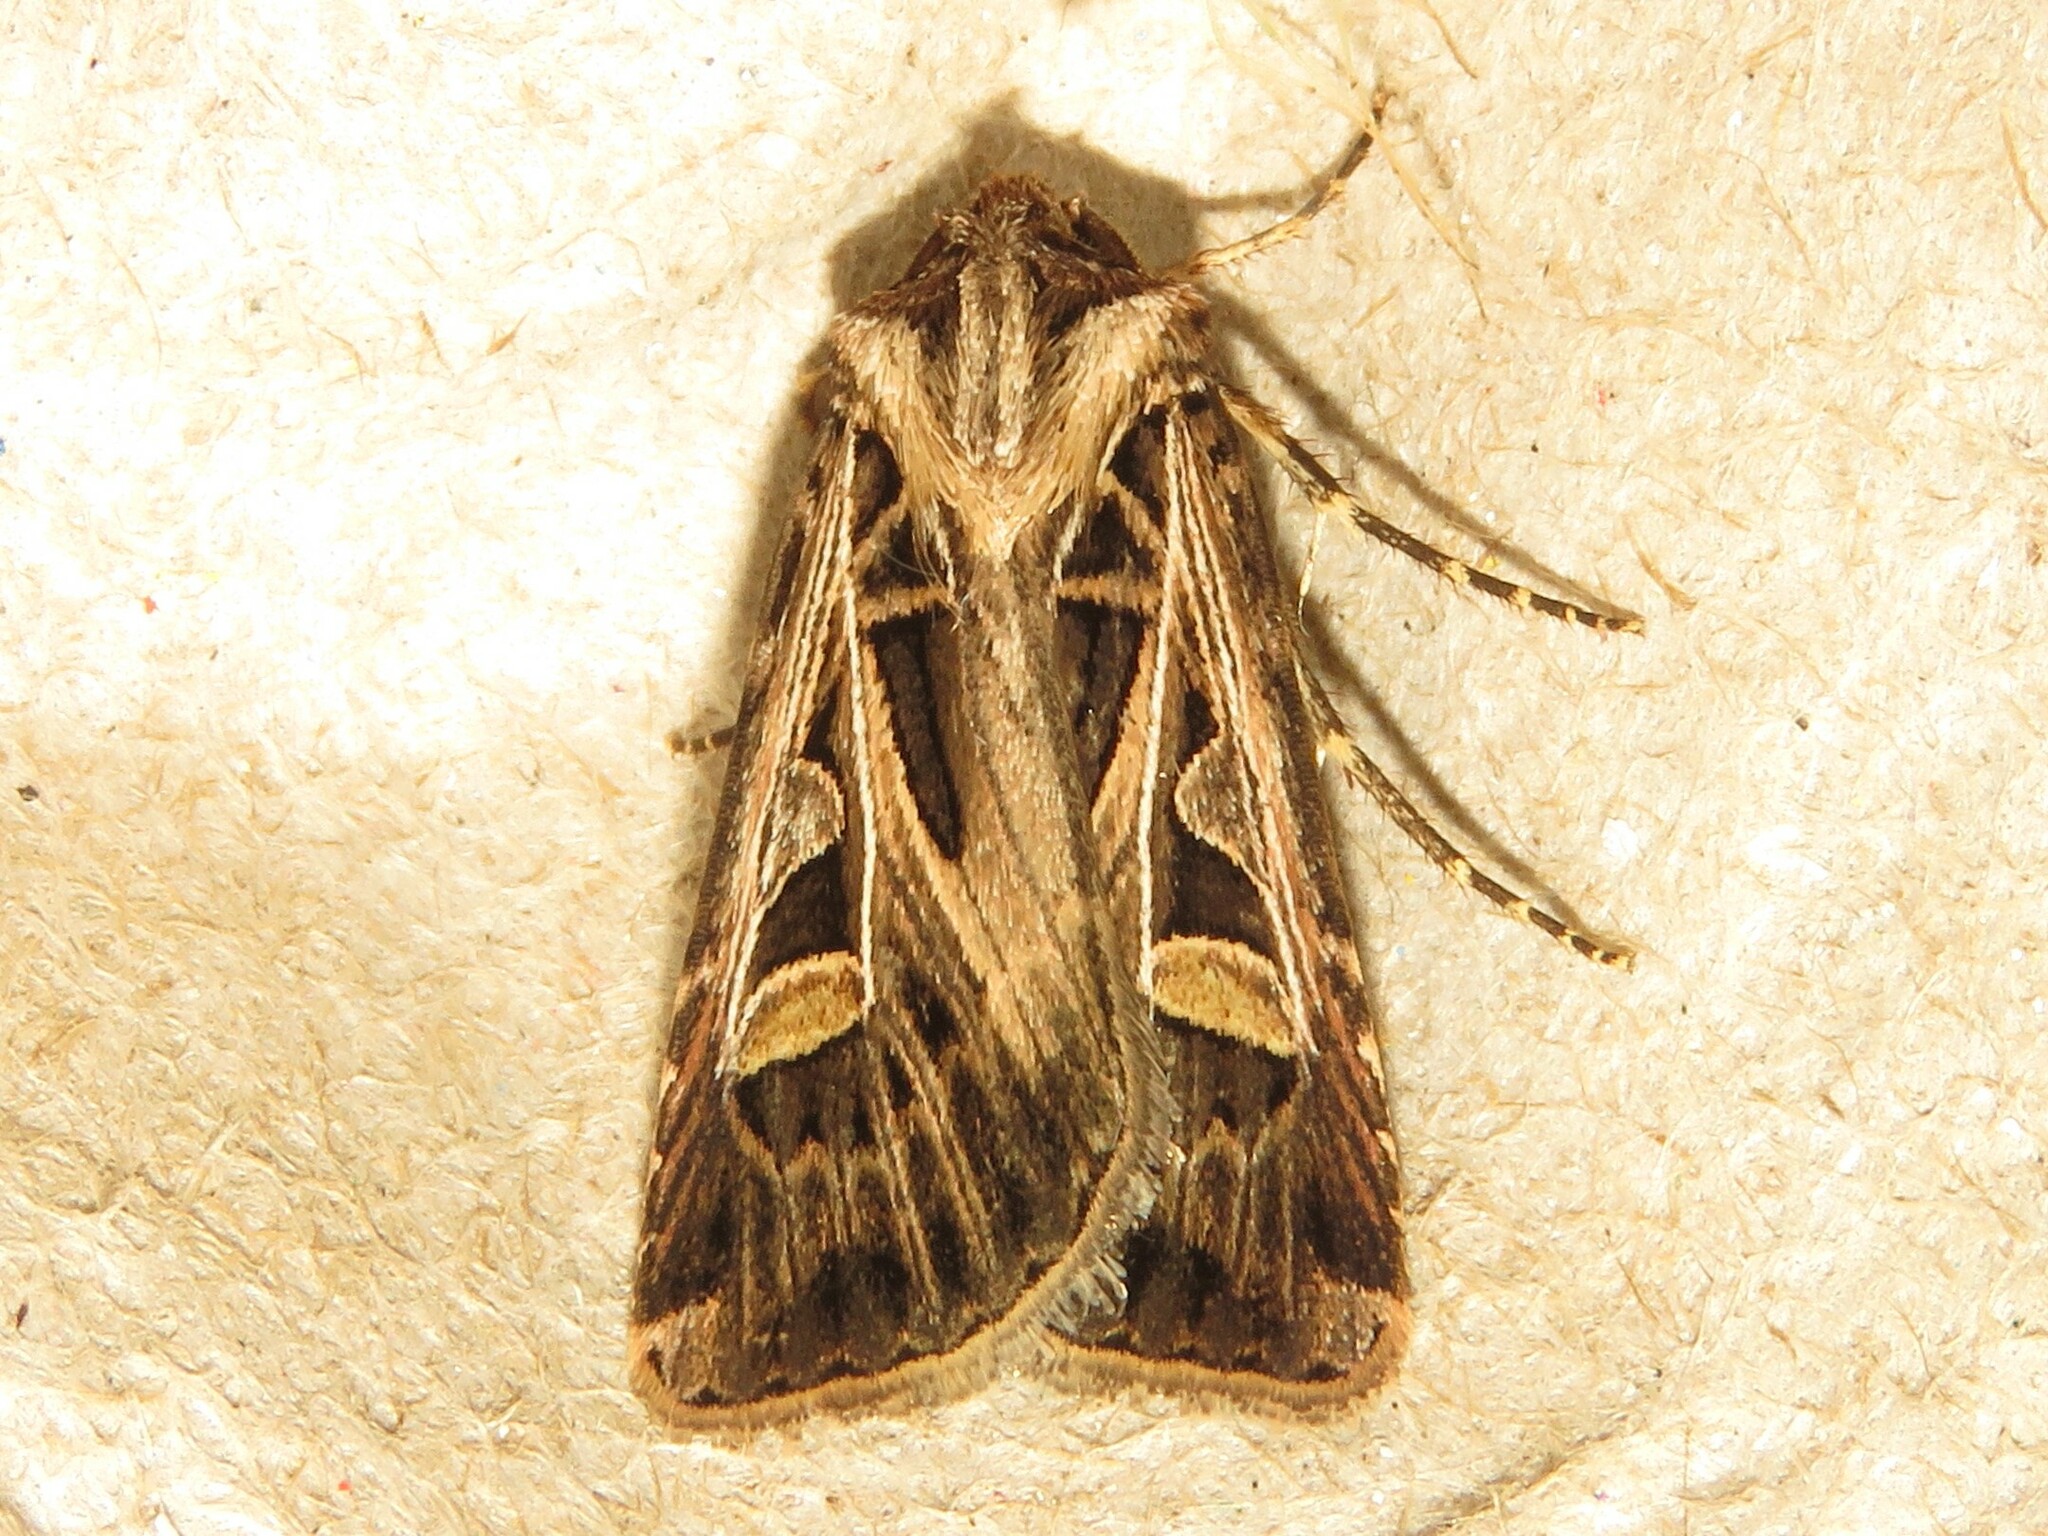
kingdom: Animalia
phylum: Arthropoda
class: Insecta
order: Lepidoptera
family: Noctuidae
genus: Feltia
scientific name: Feltia jaculifera
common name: Dingy cutworm moth
